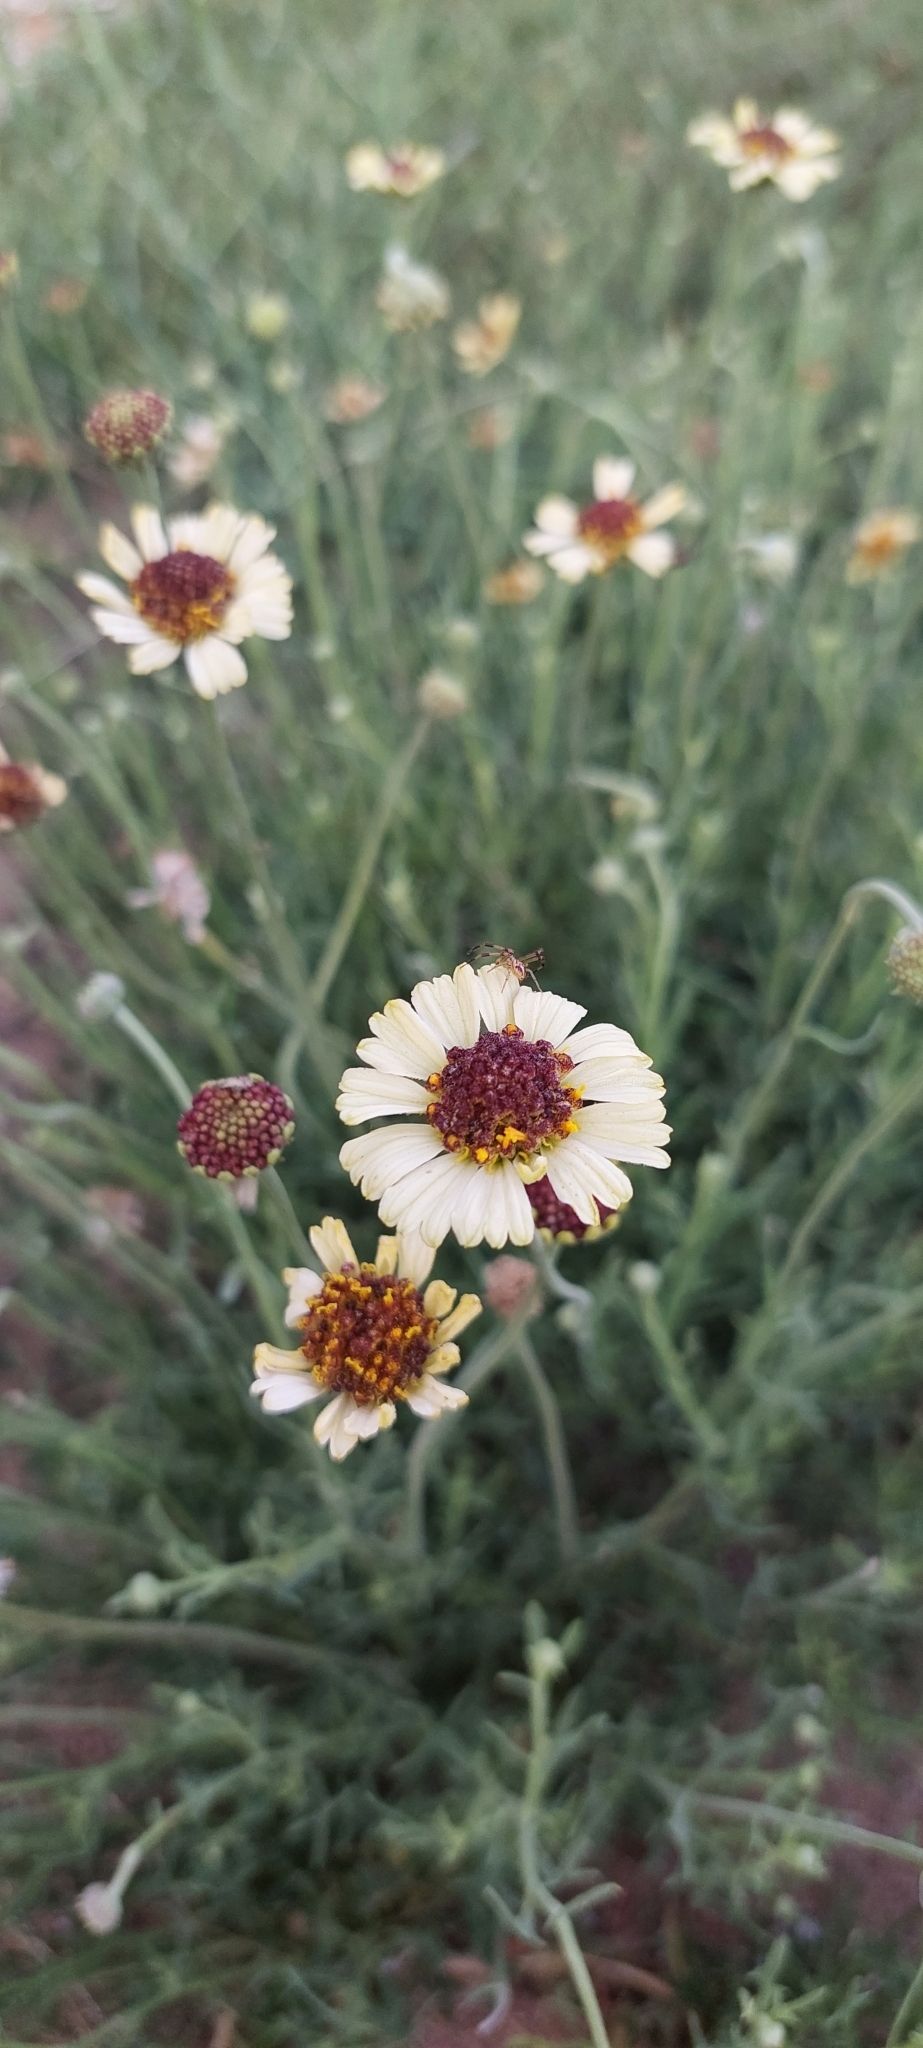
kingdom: Plantae
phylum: Tracheophyta
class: Magnoliopsida
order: Asterales
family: Asteraceae
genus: Helenium
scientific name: Helenium uniflorum
